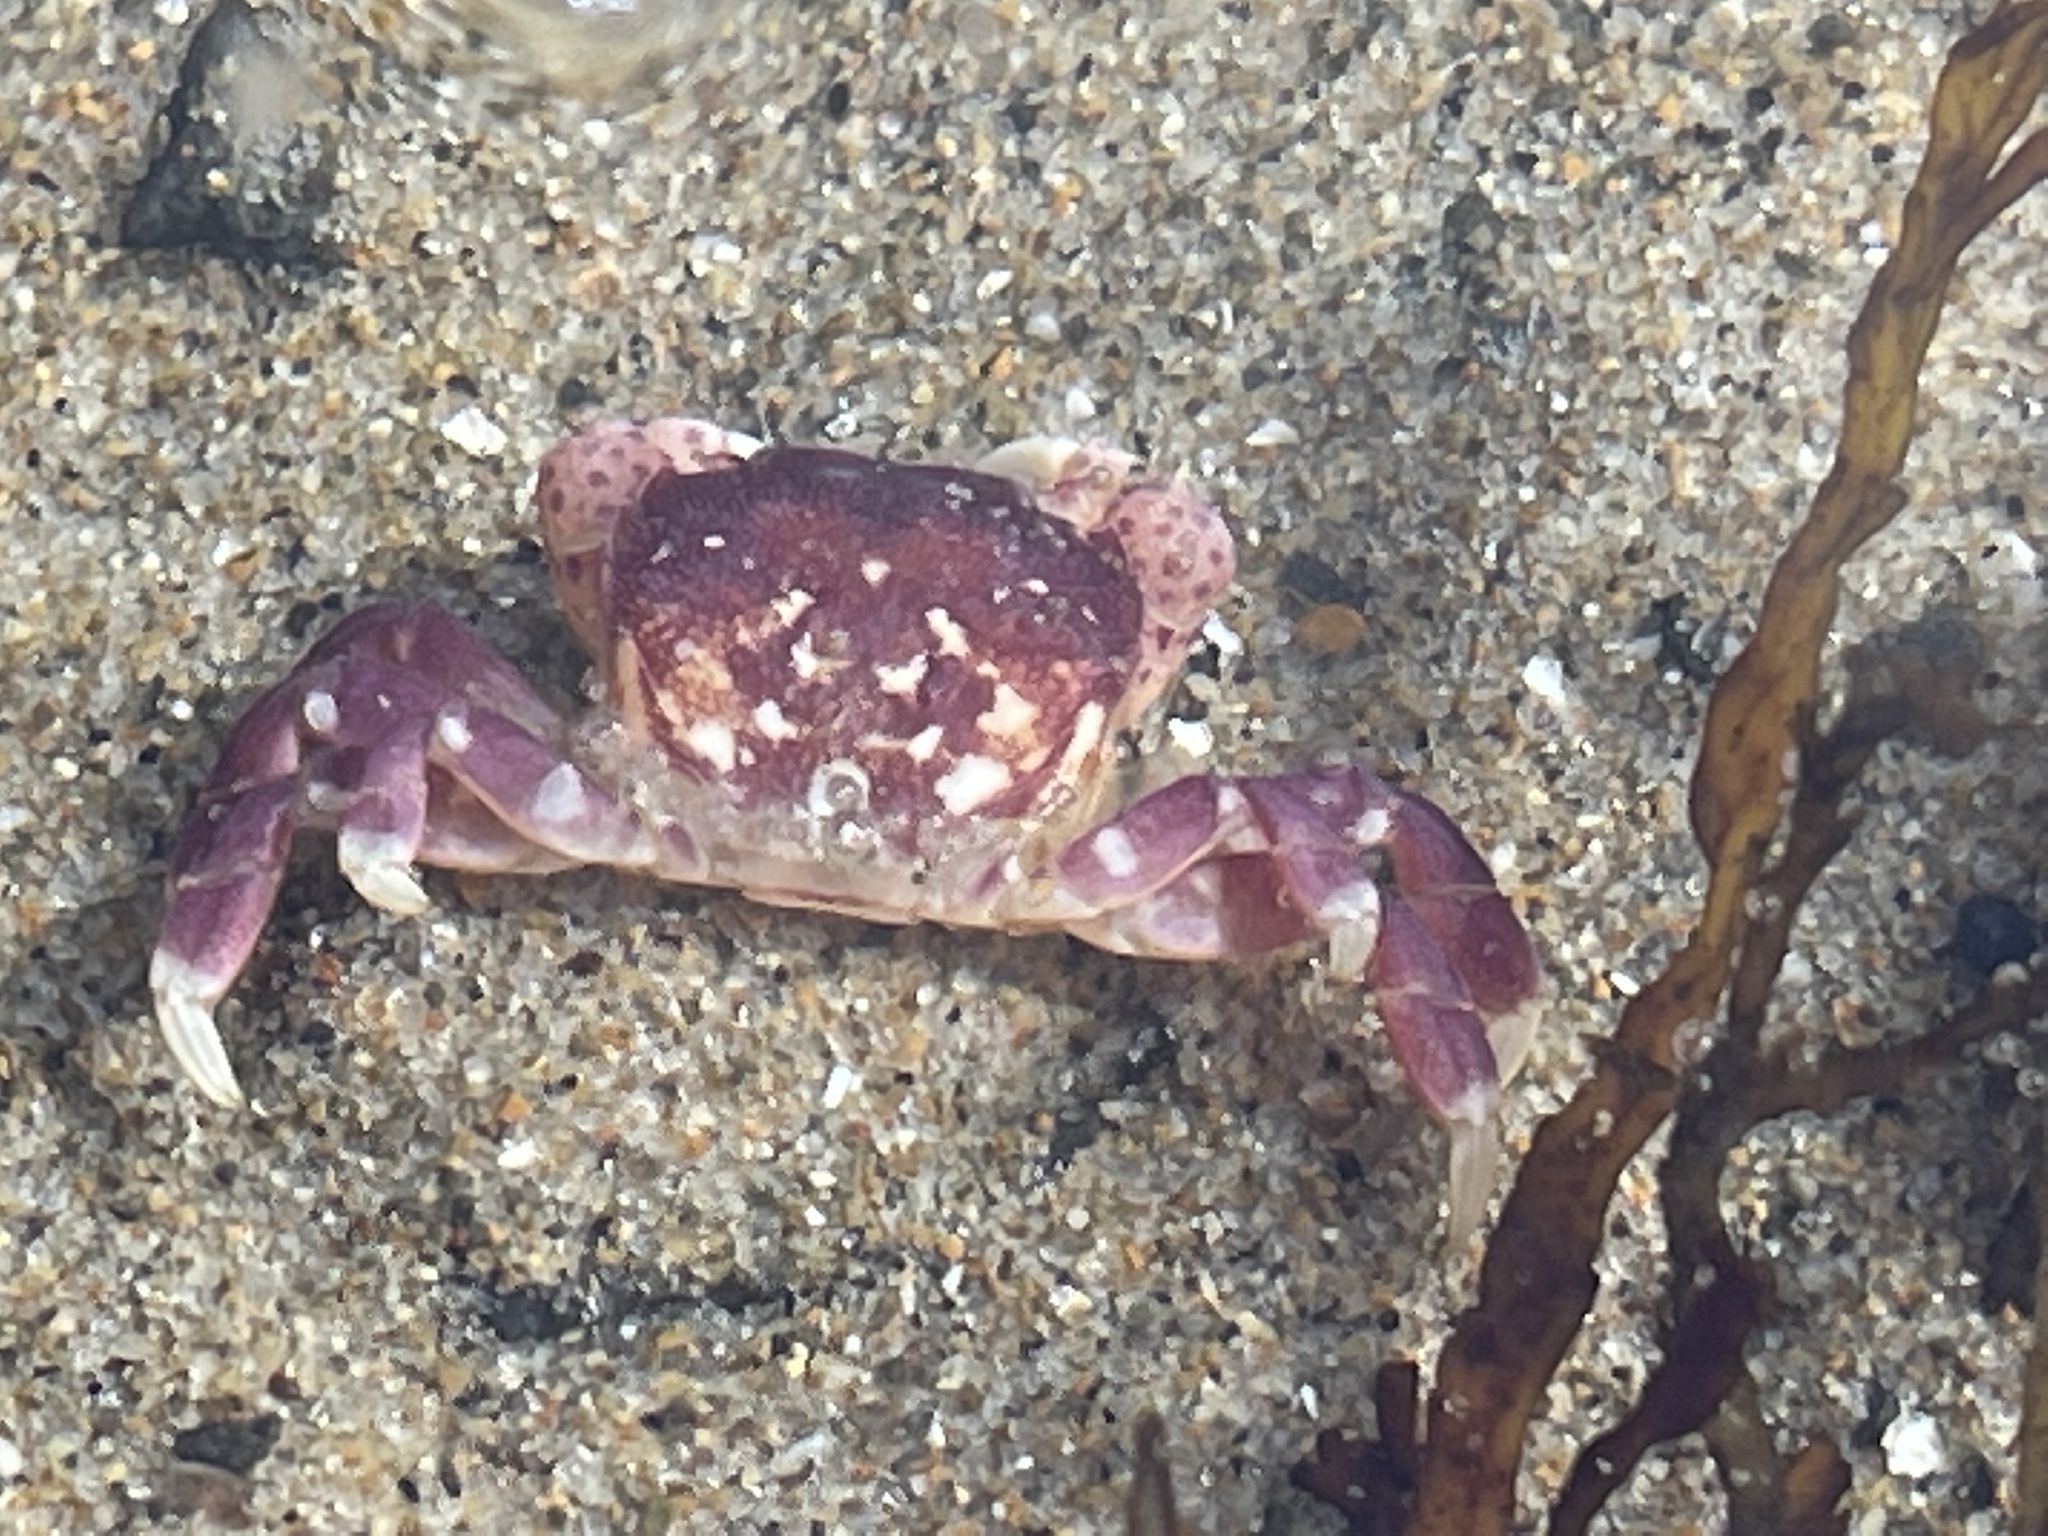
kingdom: Animalia
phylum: Arthropoda
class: Malacostraca
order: Decapoda
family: Varunidae
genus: Hemigrapsus
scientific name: Hemigrapsus nudus
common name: Purple shore crab
